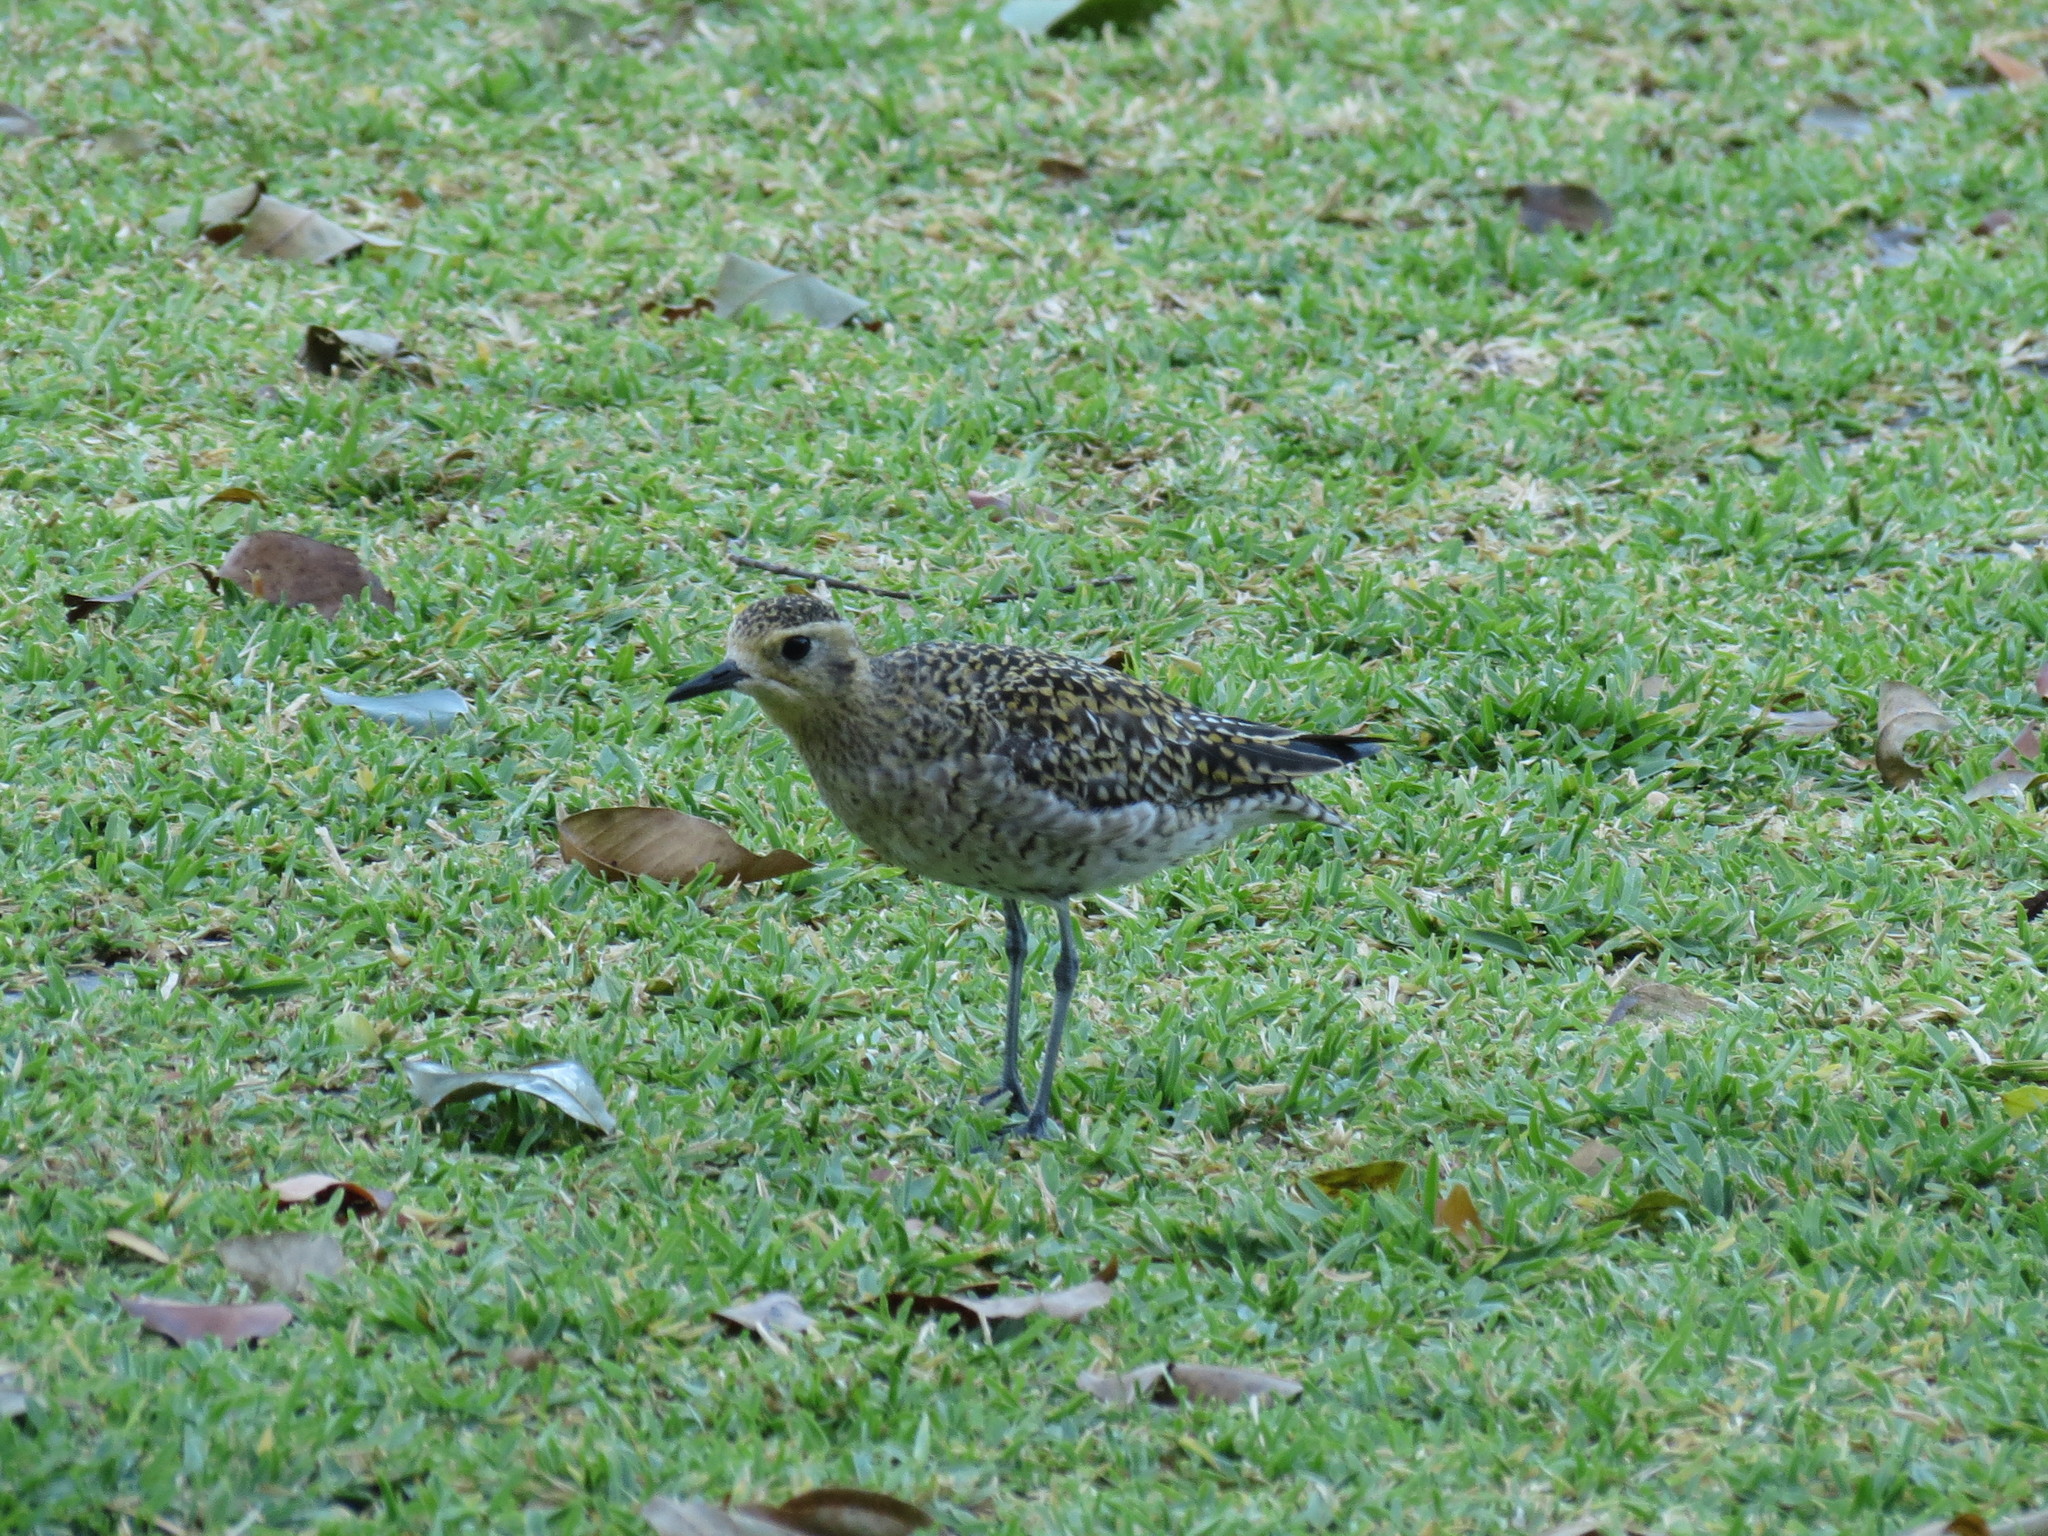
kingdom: Animalia
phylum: Chordata
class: Aves
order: Charadriiformes
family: Charadriidae
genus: Pluvialis
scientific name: Pluvialis fulva
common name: Pacific golden plover
